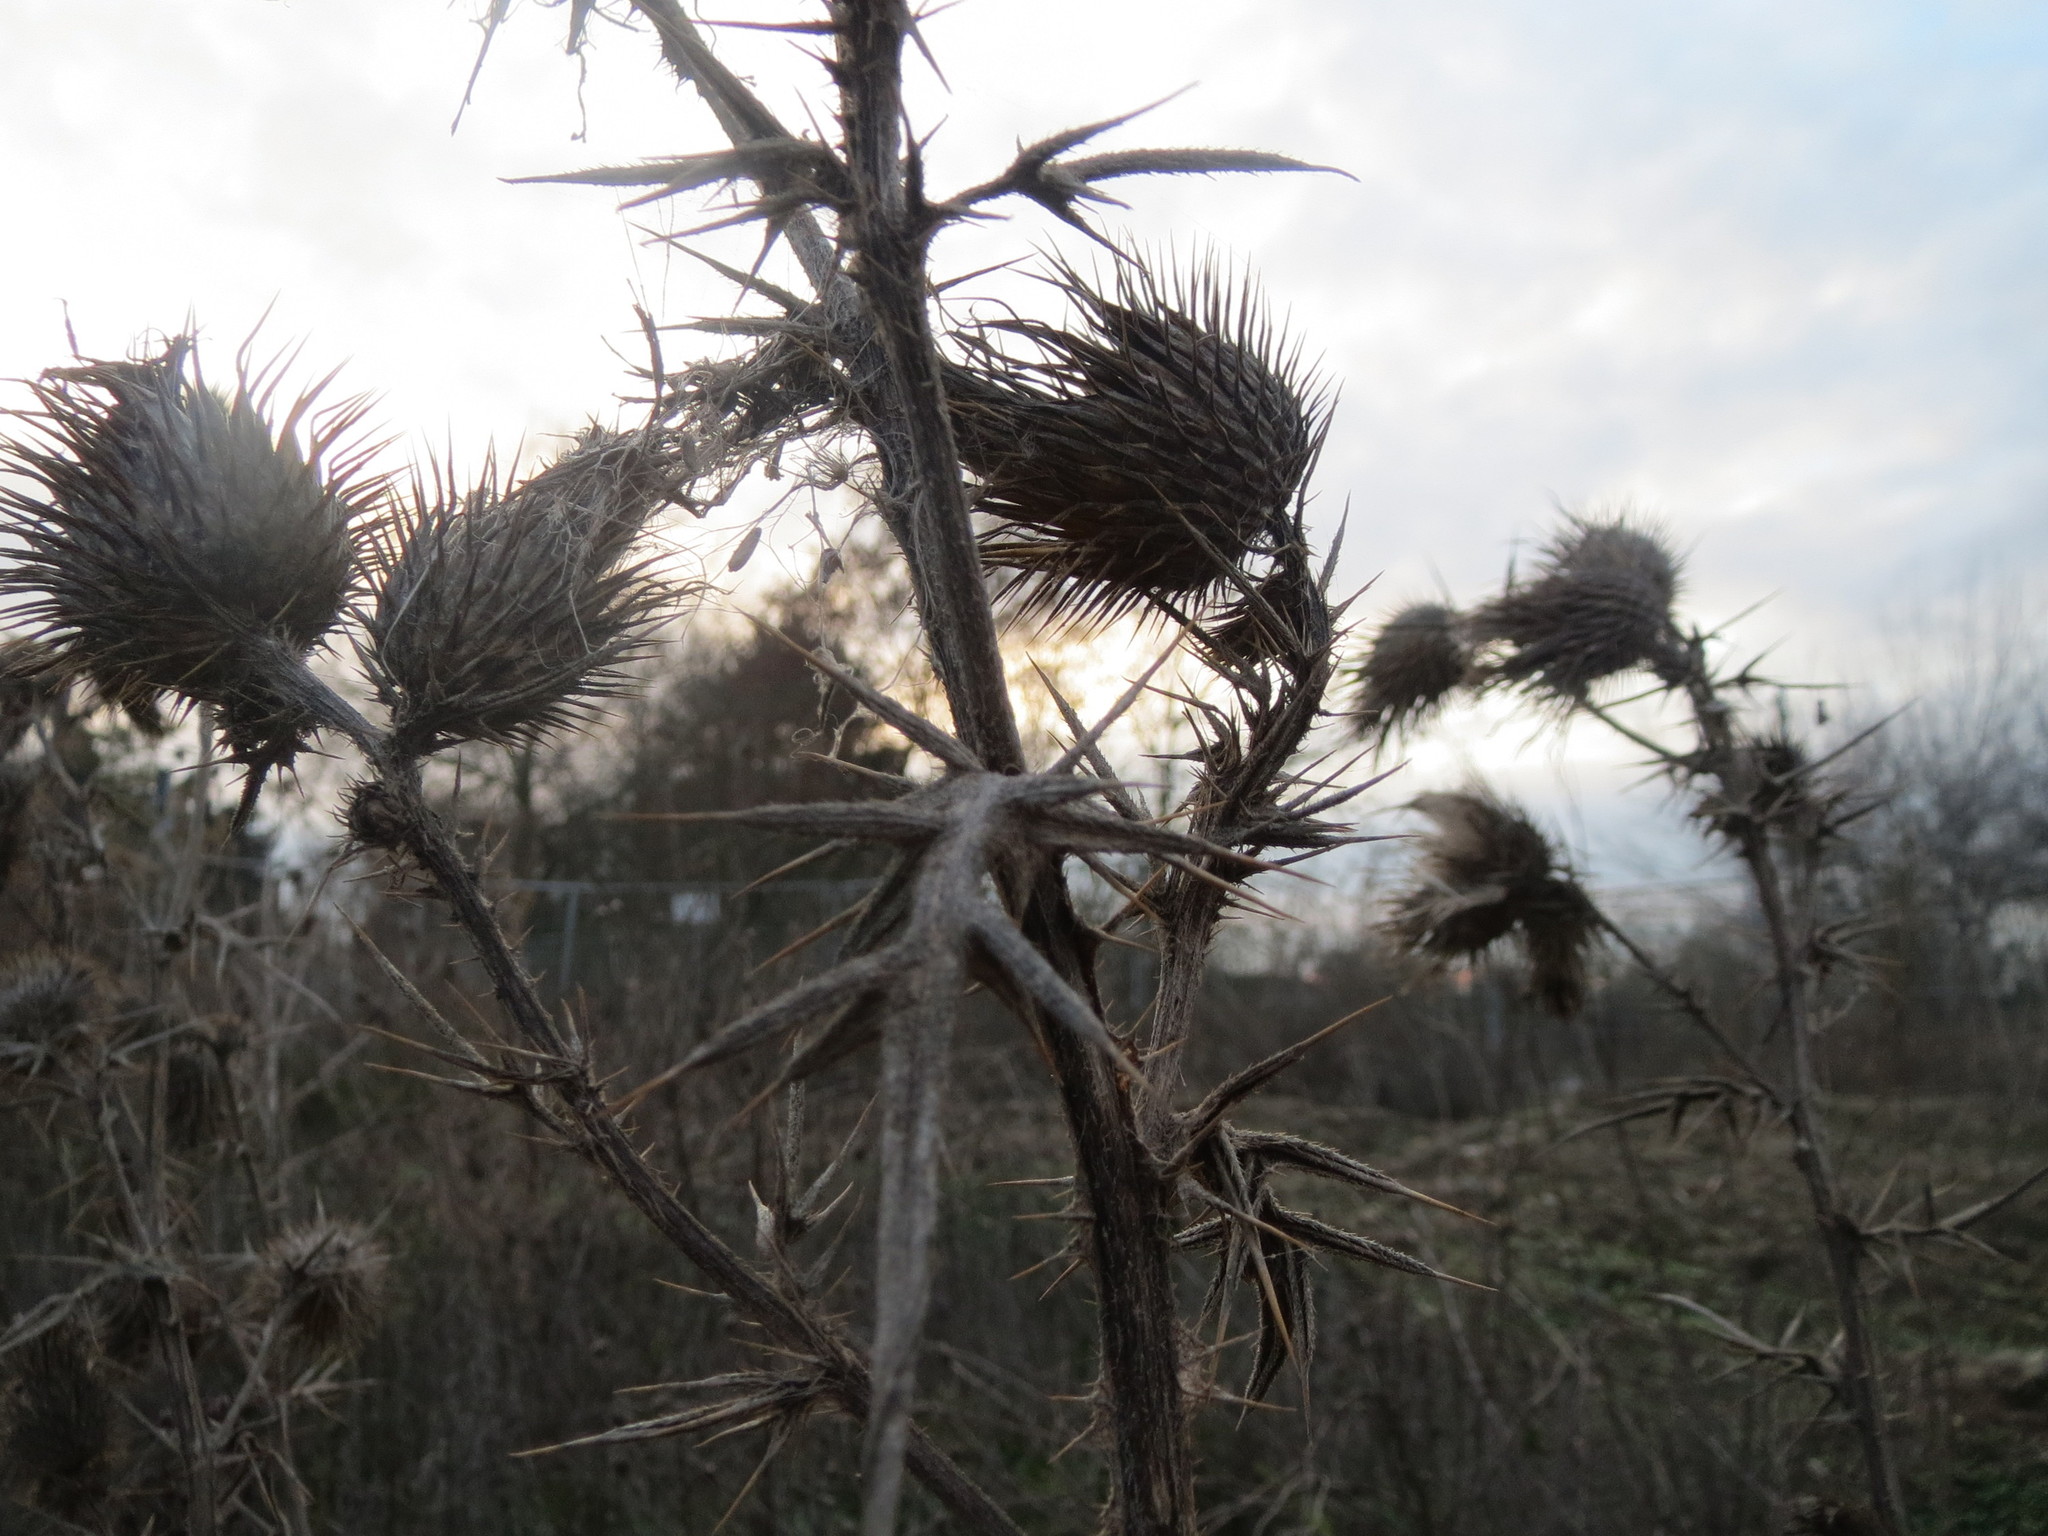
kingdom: Plantae
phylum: Tracheophyta
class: Magnoliopsida
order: Asterales
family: Asteraceae
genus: Cirsium
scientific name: Cirsium vulgare
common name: Bull thistle
